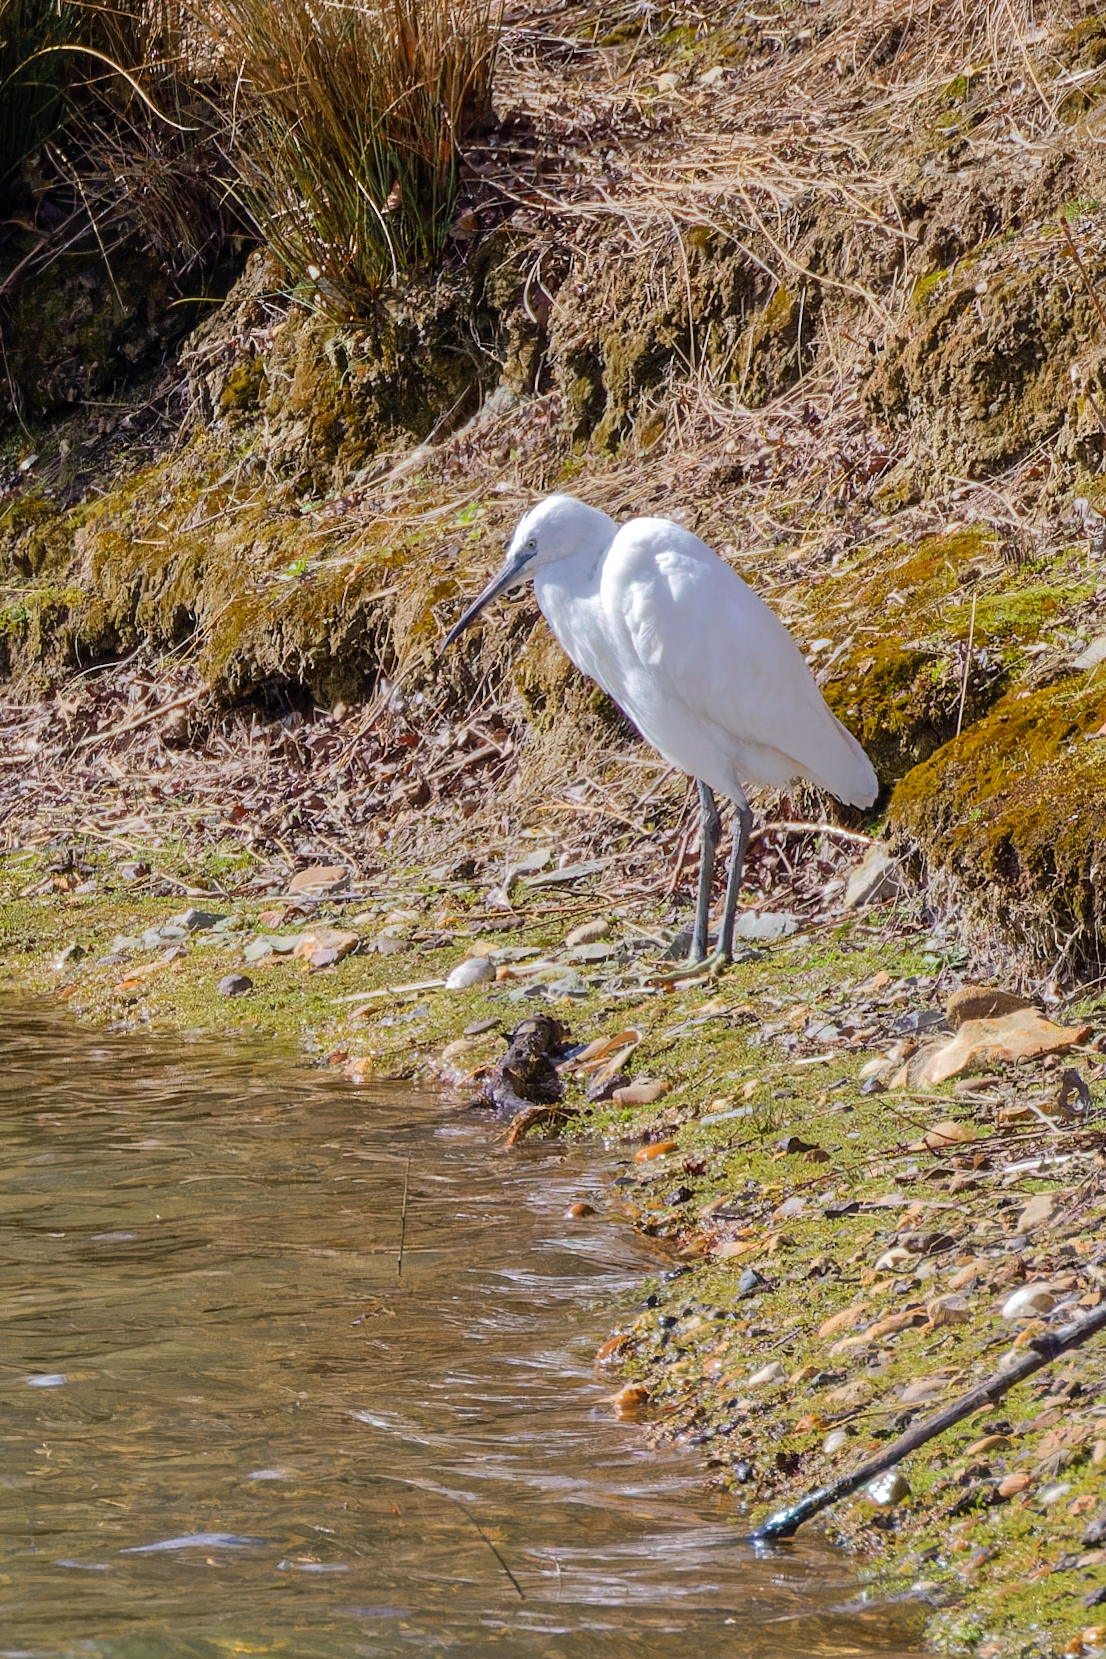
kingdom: Animalia
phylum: Chordata
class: Aves
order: Pelecaniformes
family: Ardeidae
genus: Egretta
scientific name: Egretta garzetta
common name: Little egret
